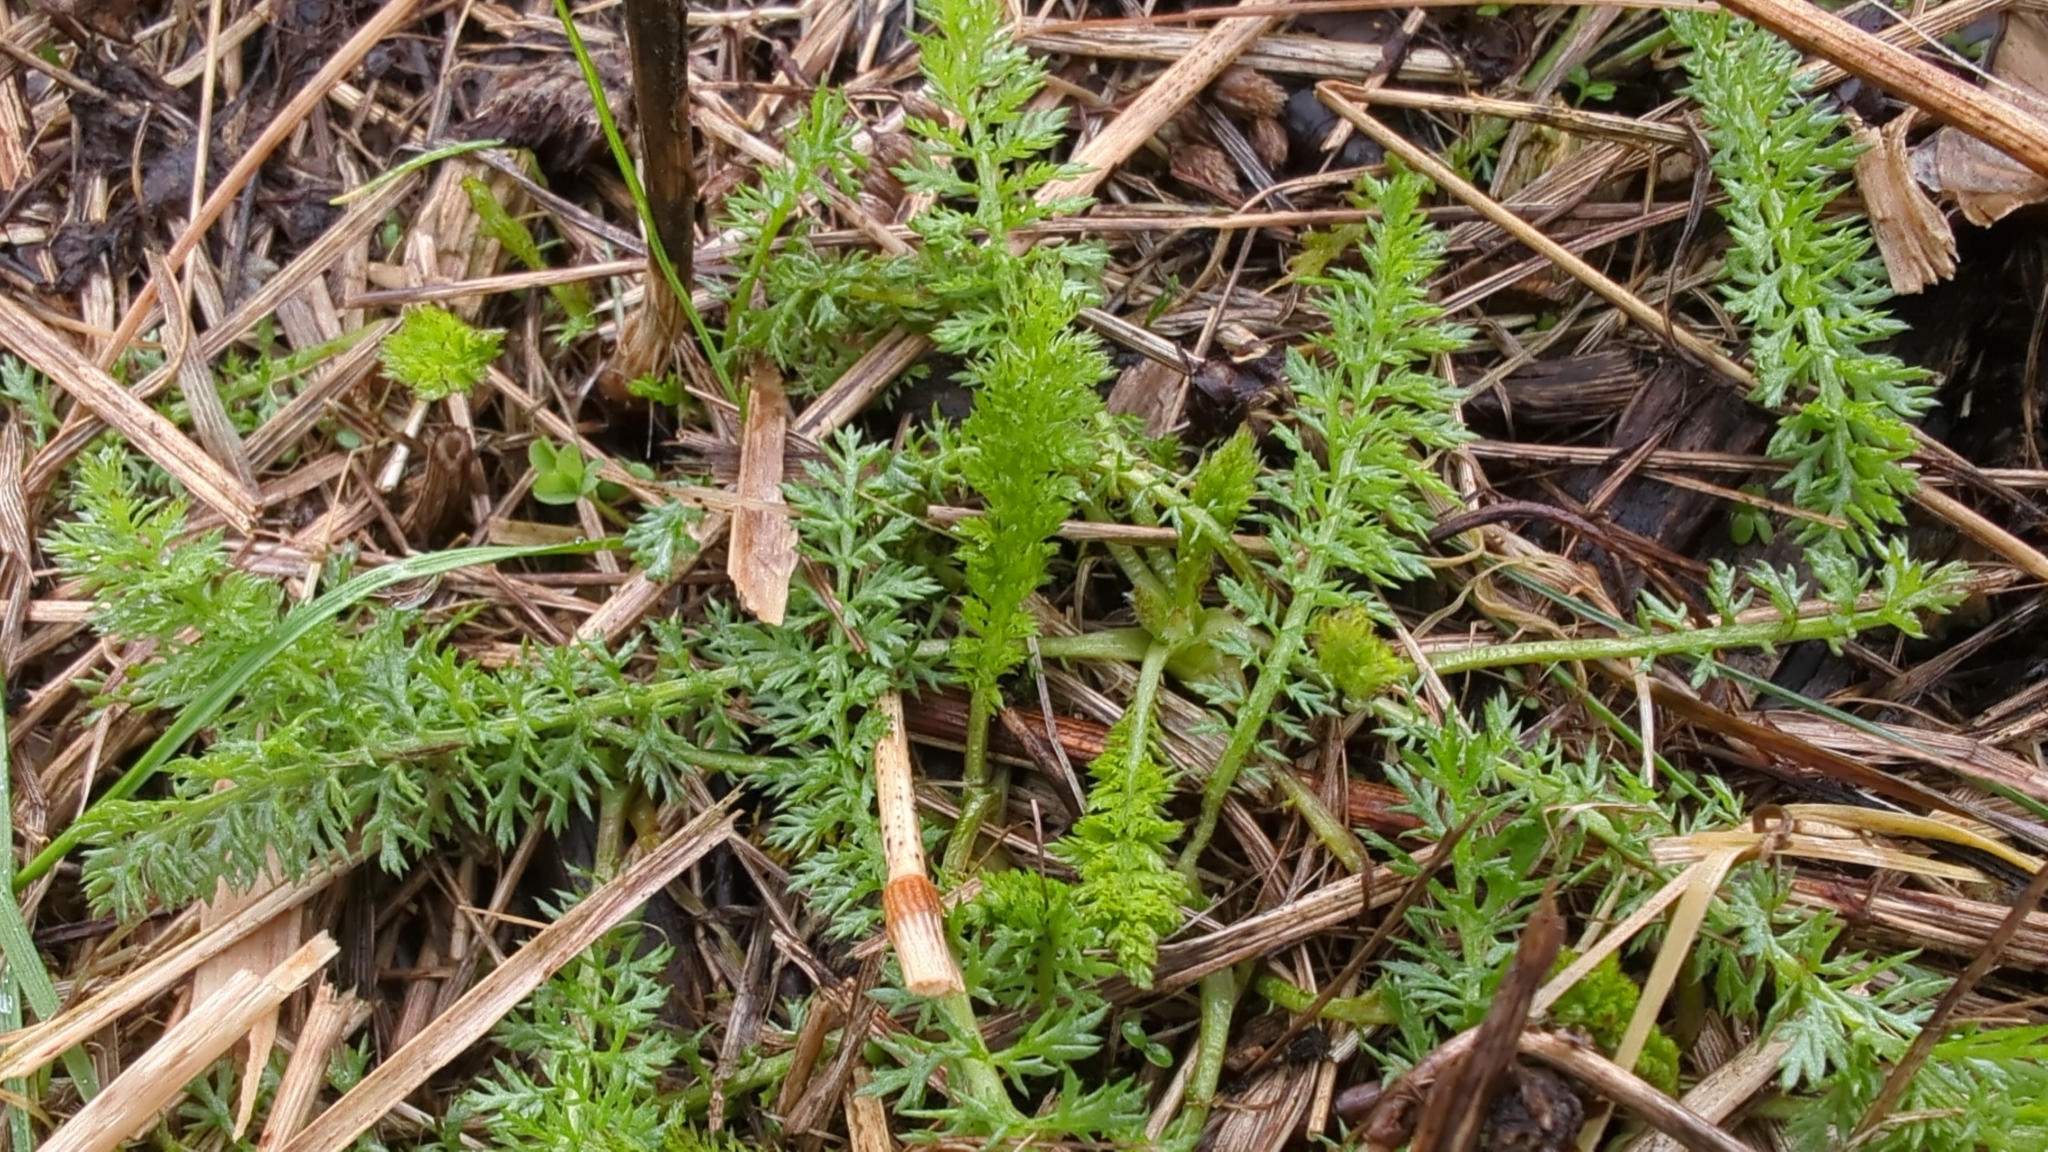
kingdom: Plantae
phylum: Tracheophyta
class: Magnoliopsida
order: Asterales
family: Asteraceae
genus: Achillea
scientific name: Achillea millefolium
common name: Yarrow
